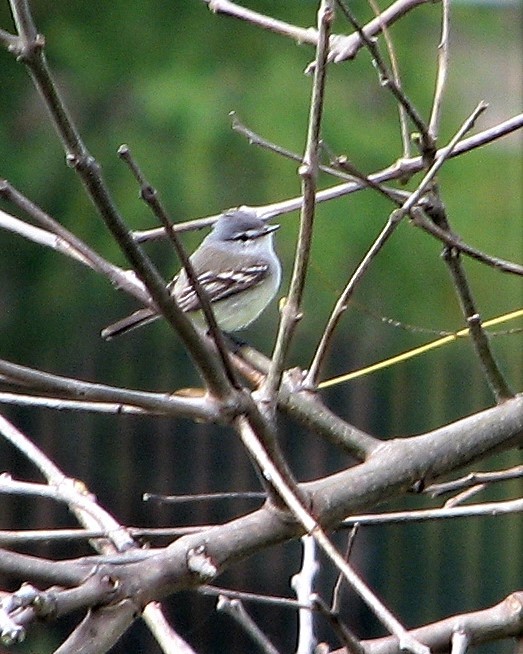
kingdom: Animalia
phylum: Chordata
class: Aves
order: Passeriformes
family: Tyrannidae
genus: Serpophaga
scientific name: Serpophaga subcristata
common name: White-crested tyrannulet
